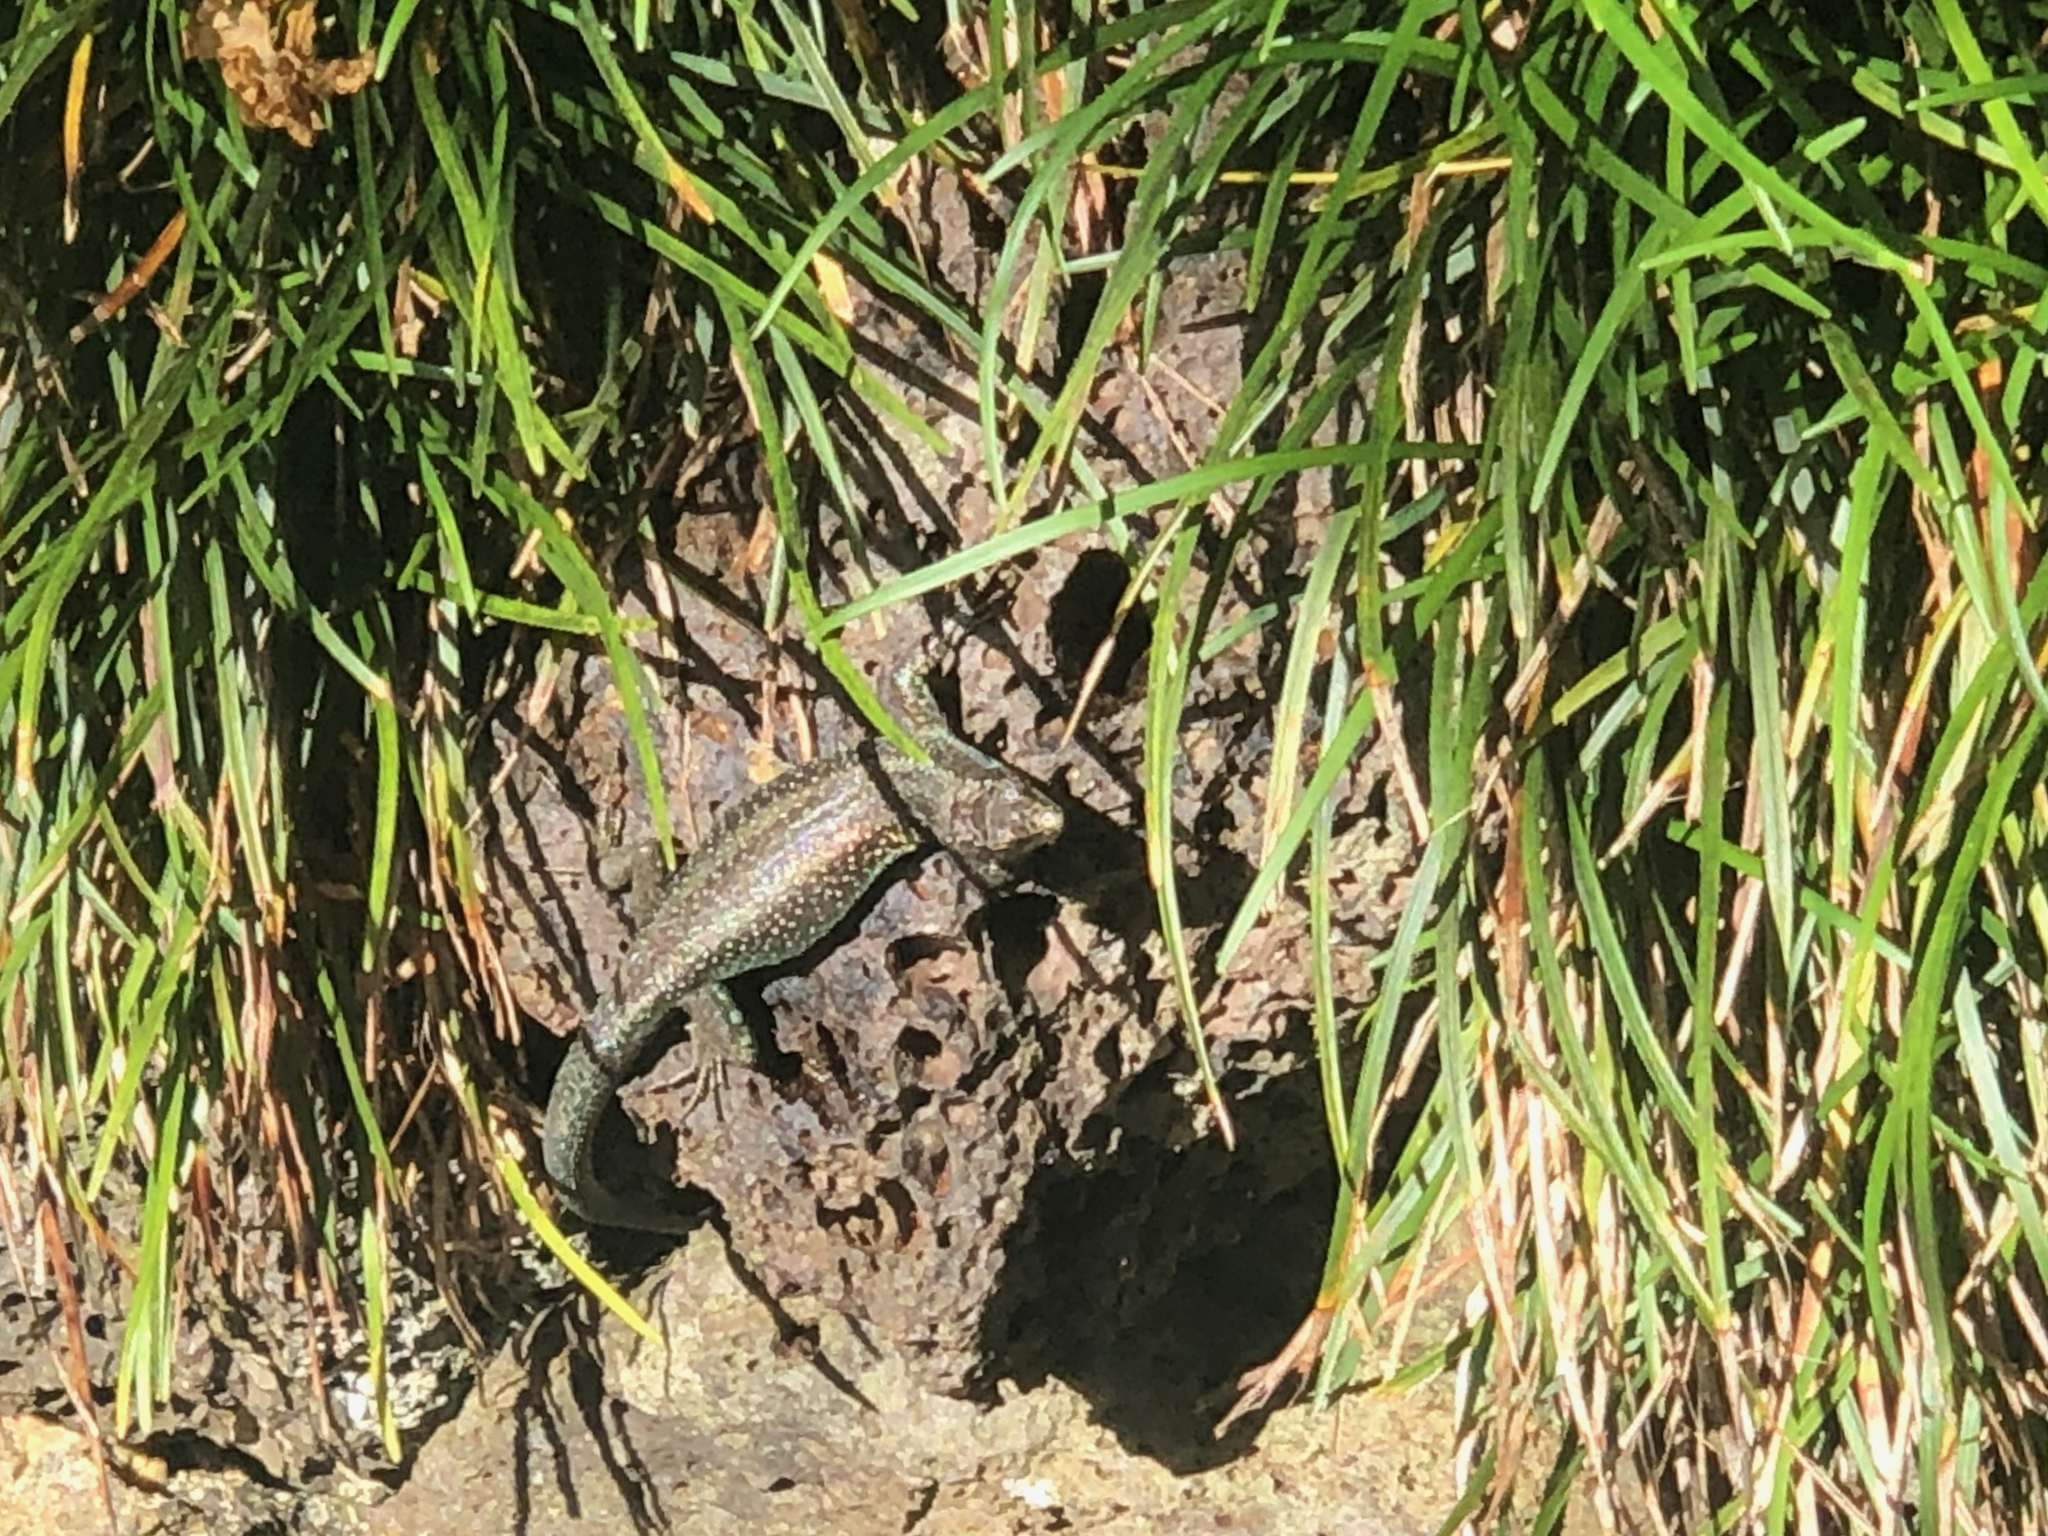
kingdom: Animalia
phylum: Chordata
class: Squamata
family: Lacertidae
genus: Teira
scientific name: Teira dugesii
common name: Madeira lizard
